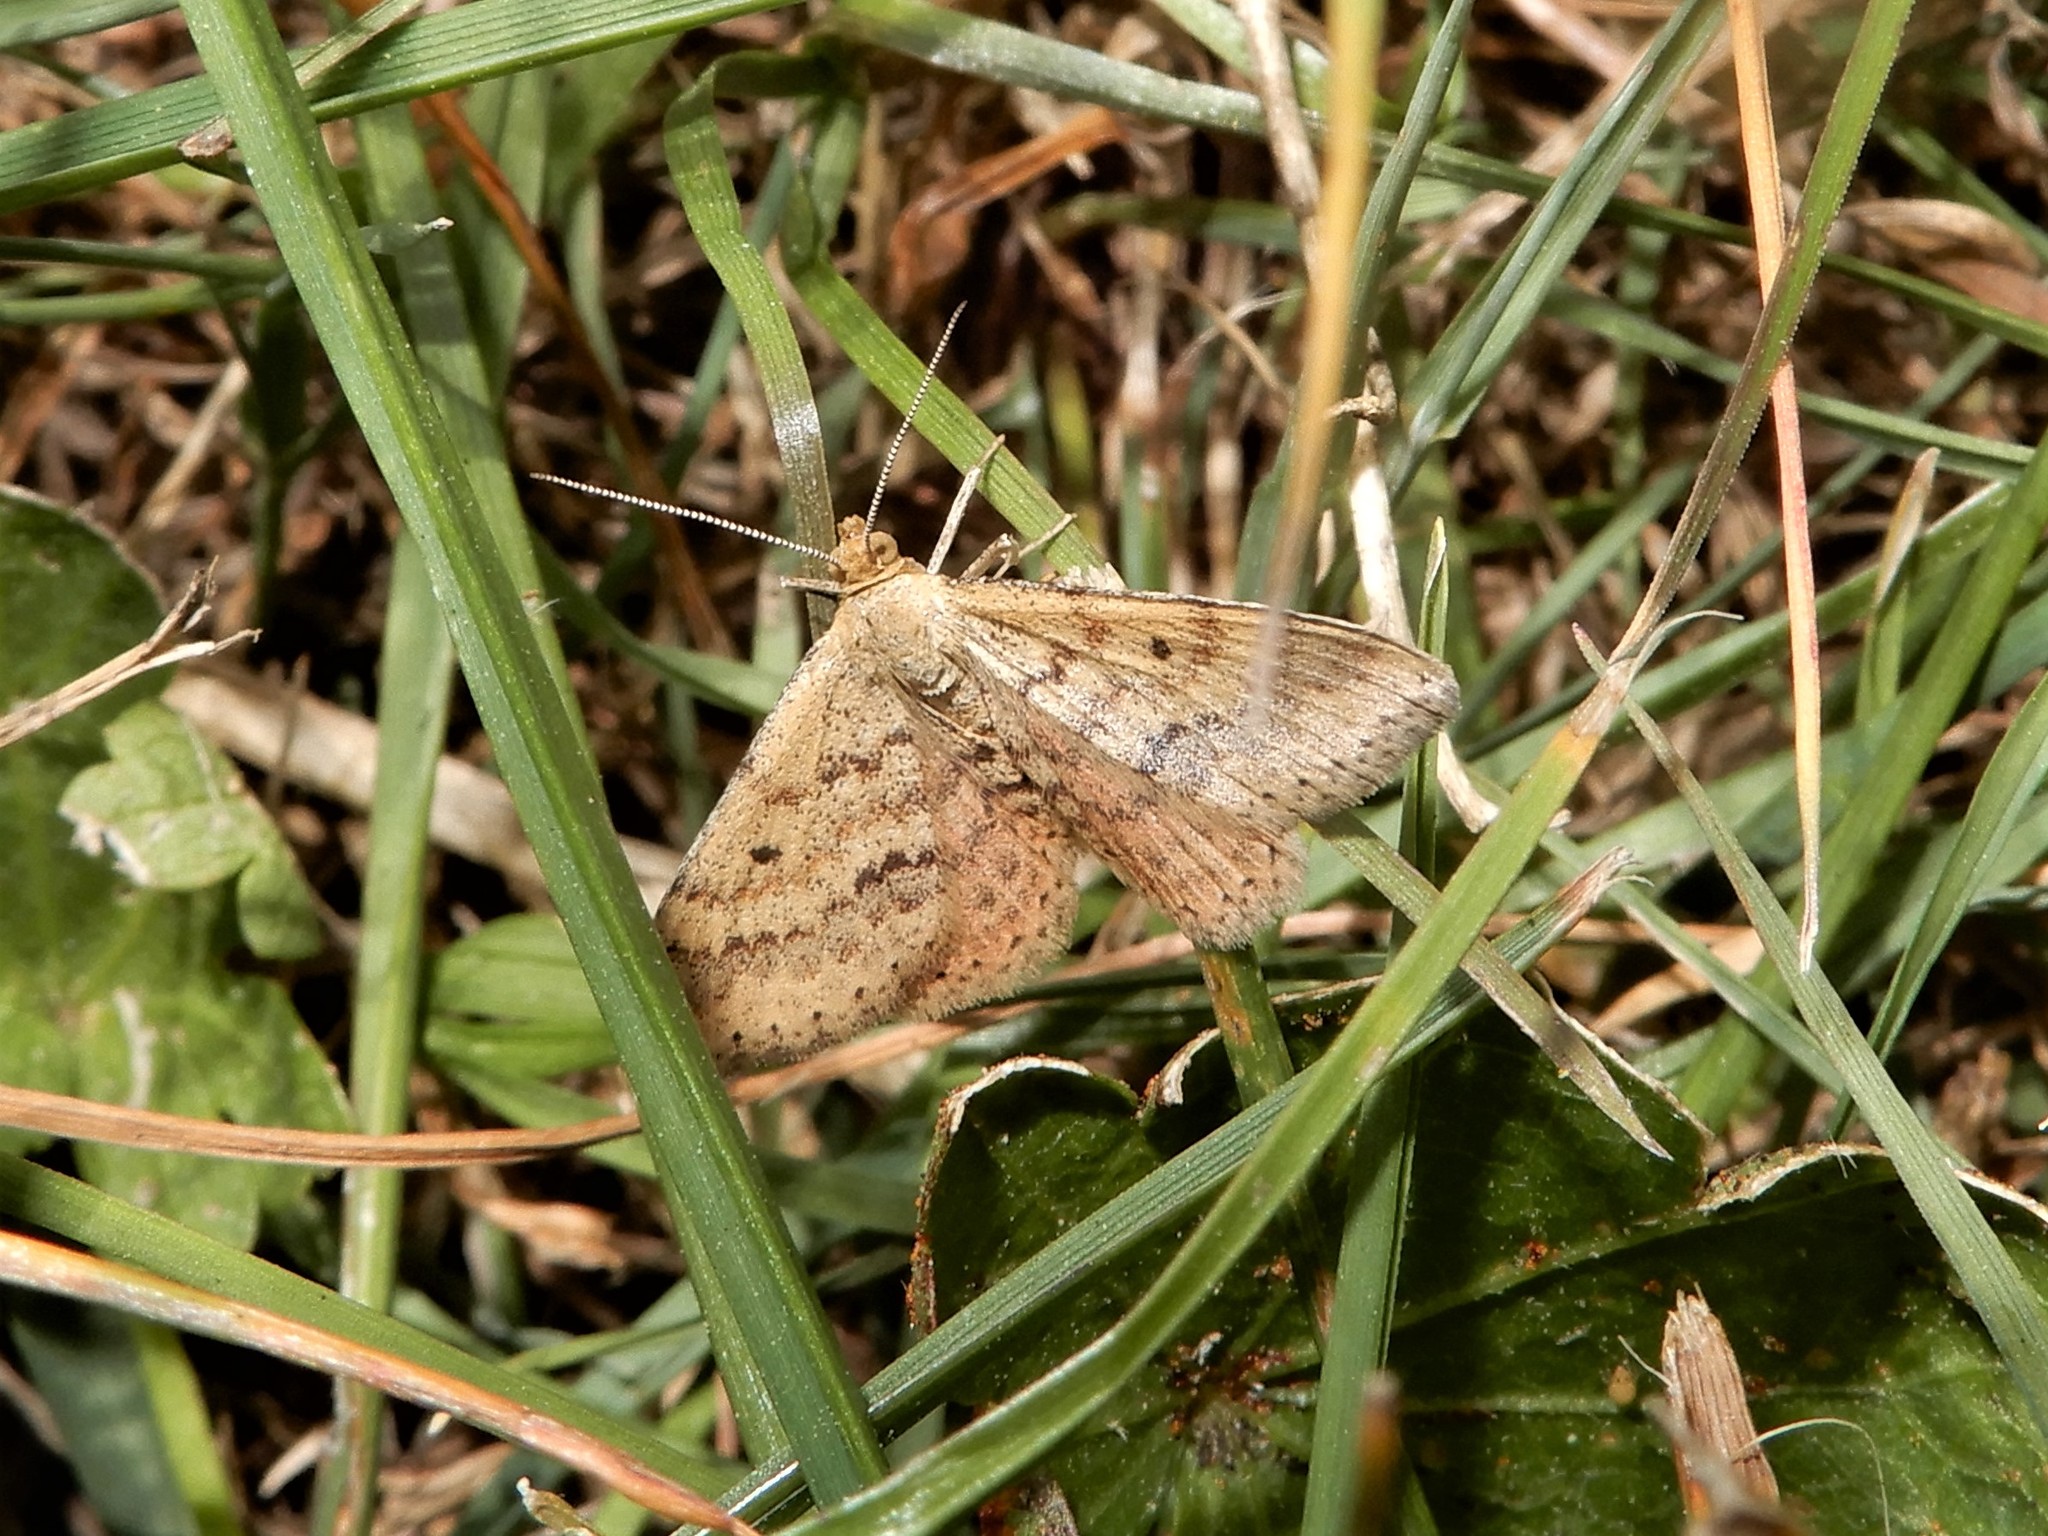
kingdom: Animalia
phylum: Arthropoda
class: Insecta
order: Lepidoptera
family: Geometridae
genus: Scopula
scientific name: Scopula rubraria
